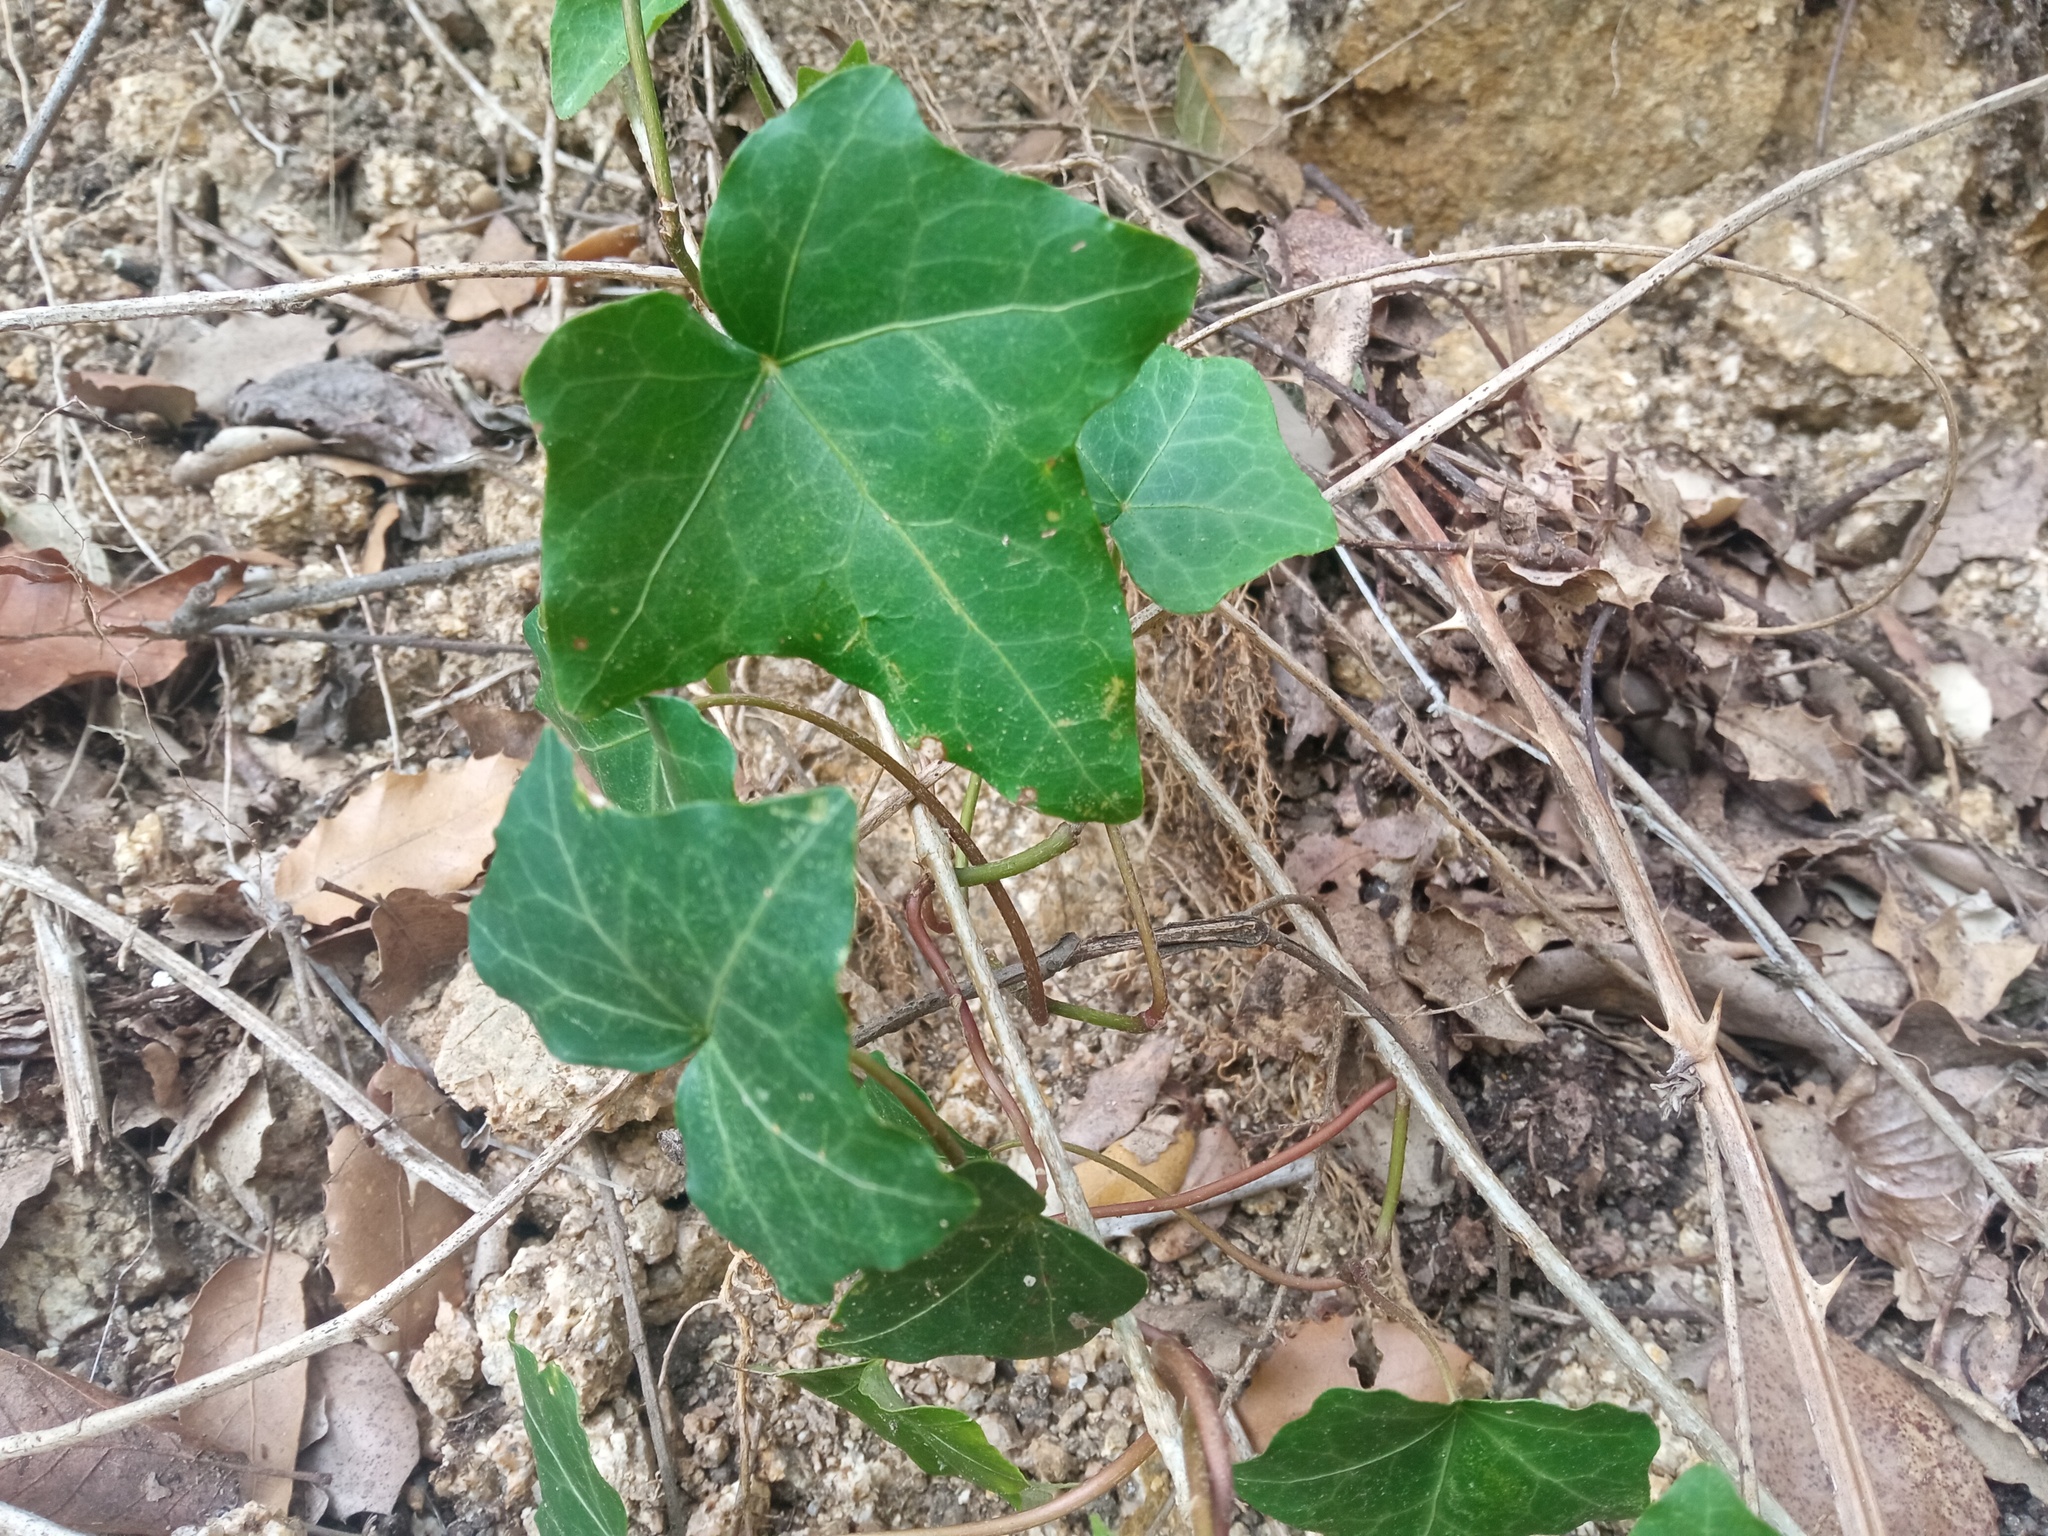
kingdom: Plantae
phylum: Tracheophyta
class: Magnoliopsida
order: Apiales
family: Araliaceae
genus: Hedera
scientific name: Hedera helix
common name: Ivy
